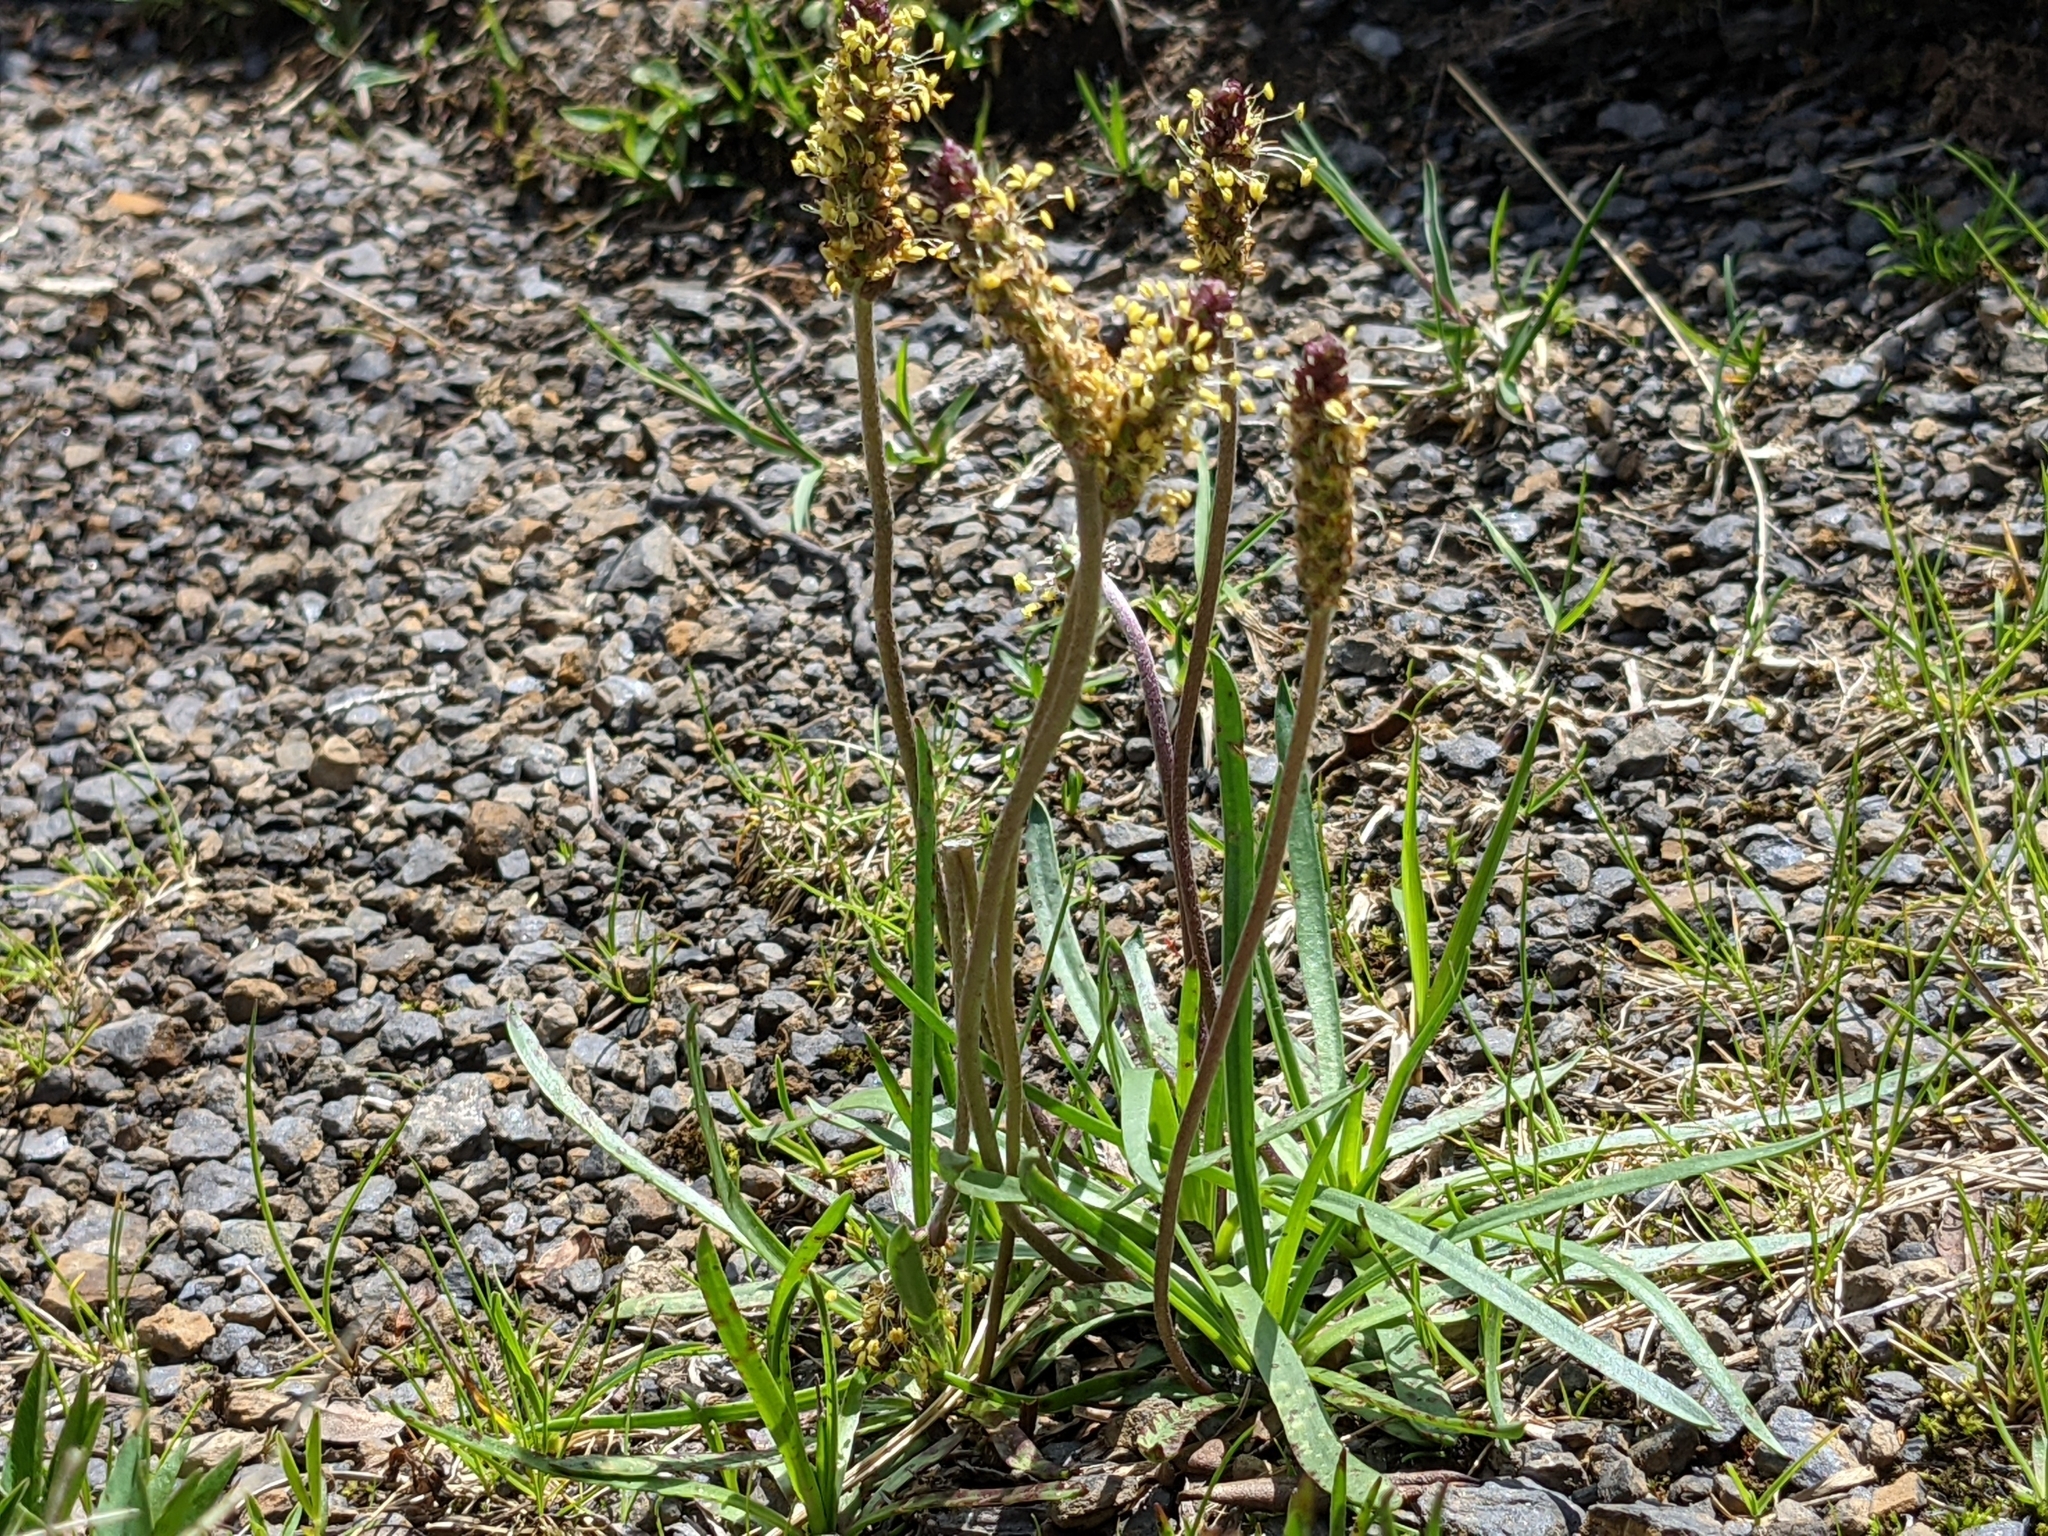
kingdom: Plantae
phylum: Tracheophyta
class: Magnoliopsida
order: Lamiales
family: Plantaginaceae
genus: Plantago
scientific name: Plantago alpina
